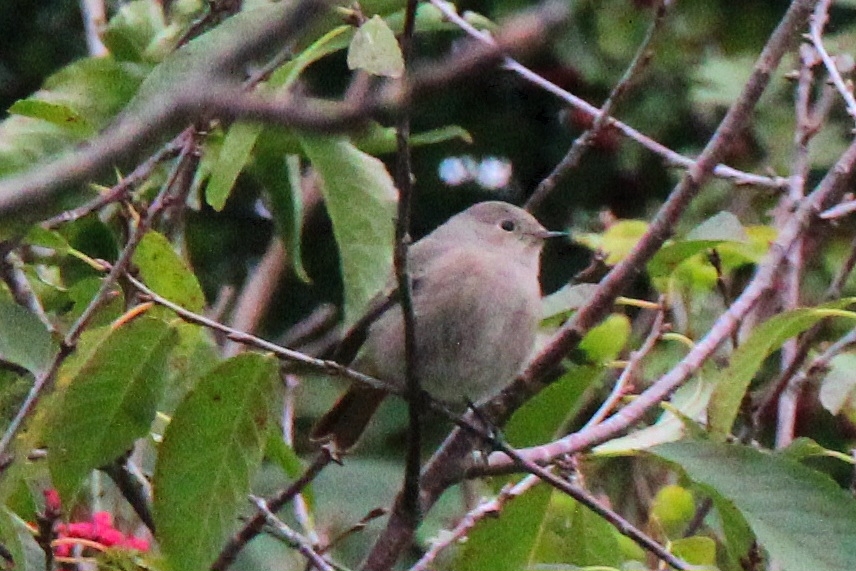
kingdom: Animalia
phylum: Chordata
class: Aves
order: Passeriformes
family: Muscicapidae
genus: Phoenicurus
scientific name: Phoenicurus ochruros
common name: Black redstart
